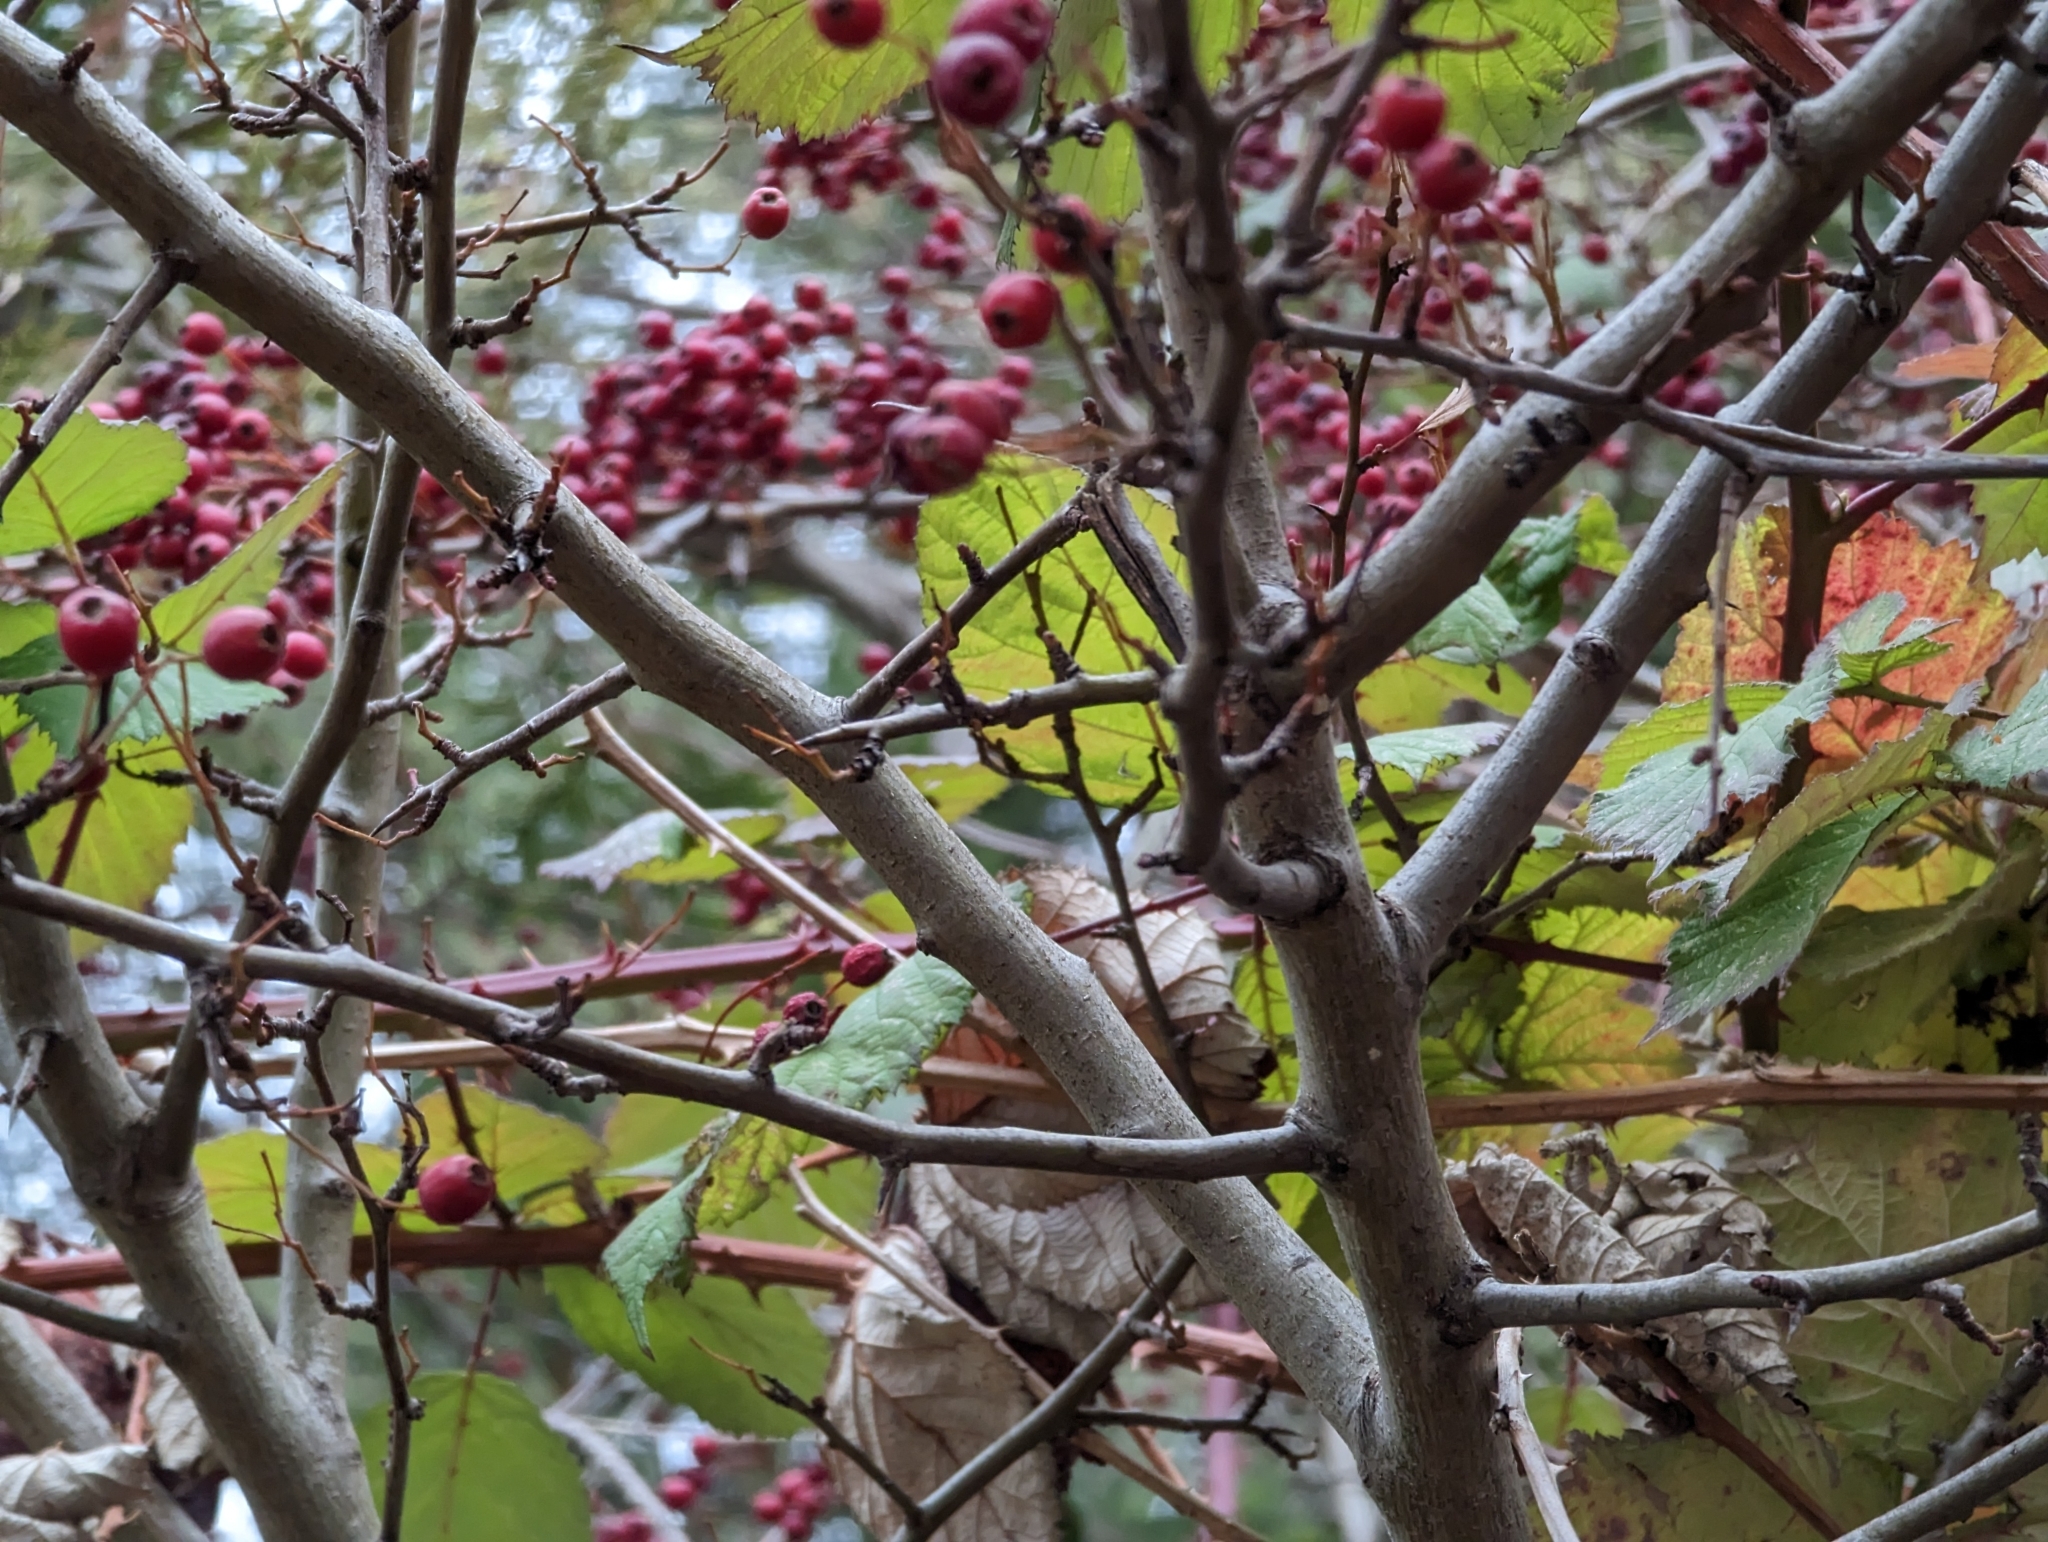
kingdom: Plantae
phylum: Tracheophyta
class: Magnoliopsida
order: Rosales
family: Rosaceae
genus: Rosa
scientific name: Rosa multiflora
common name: Multiflora rose
